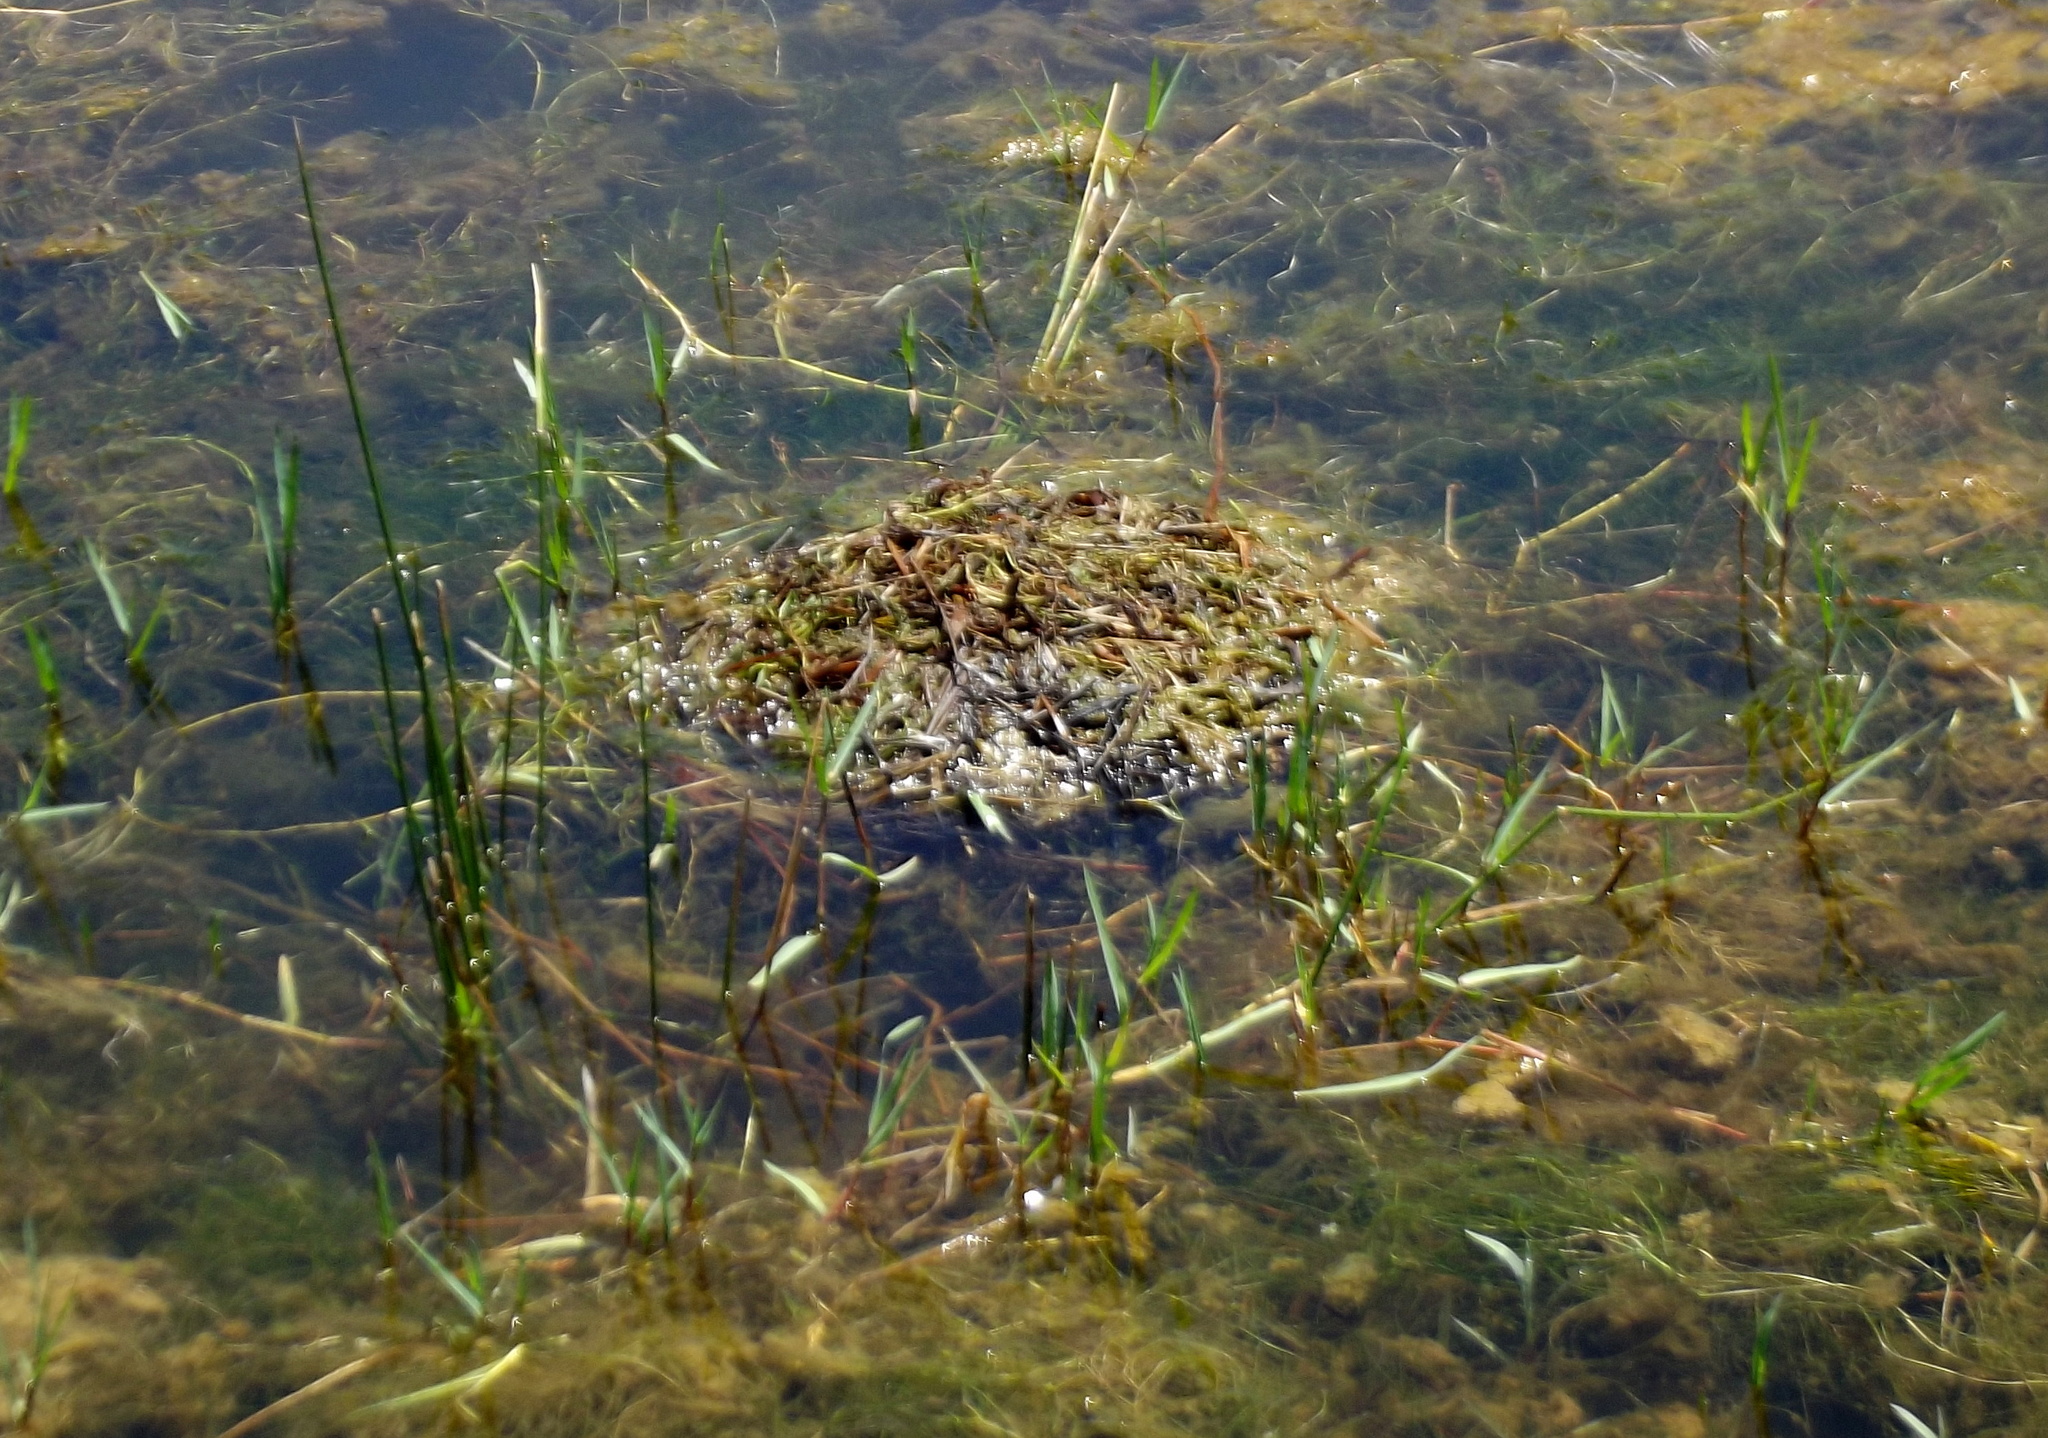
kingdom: Animalia
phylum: Chordata
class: Aves
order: Podicipediformes
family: Podicipedidae
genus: Tachybaptus
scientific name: Tachybaptus ruficollis
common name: Little grebe
